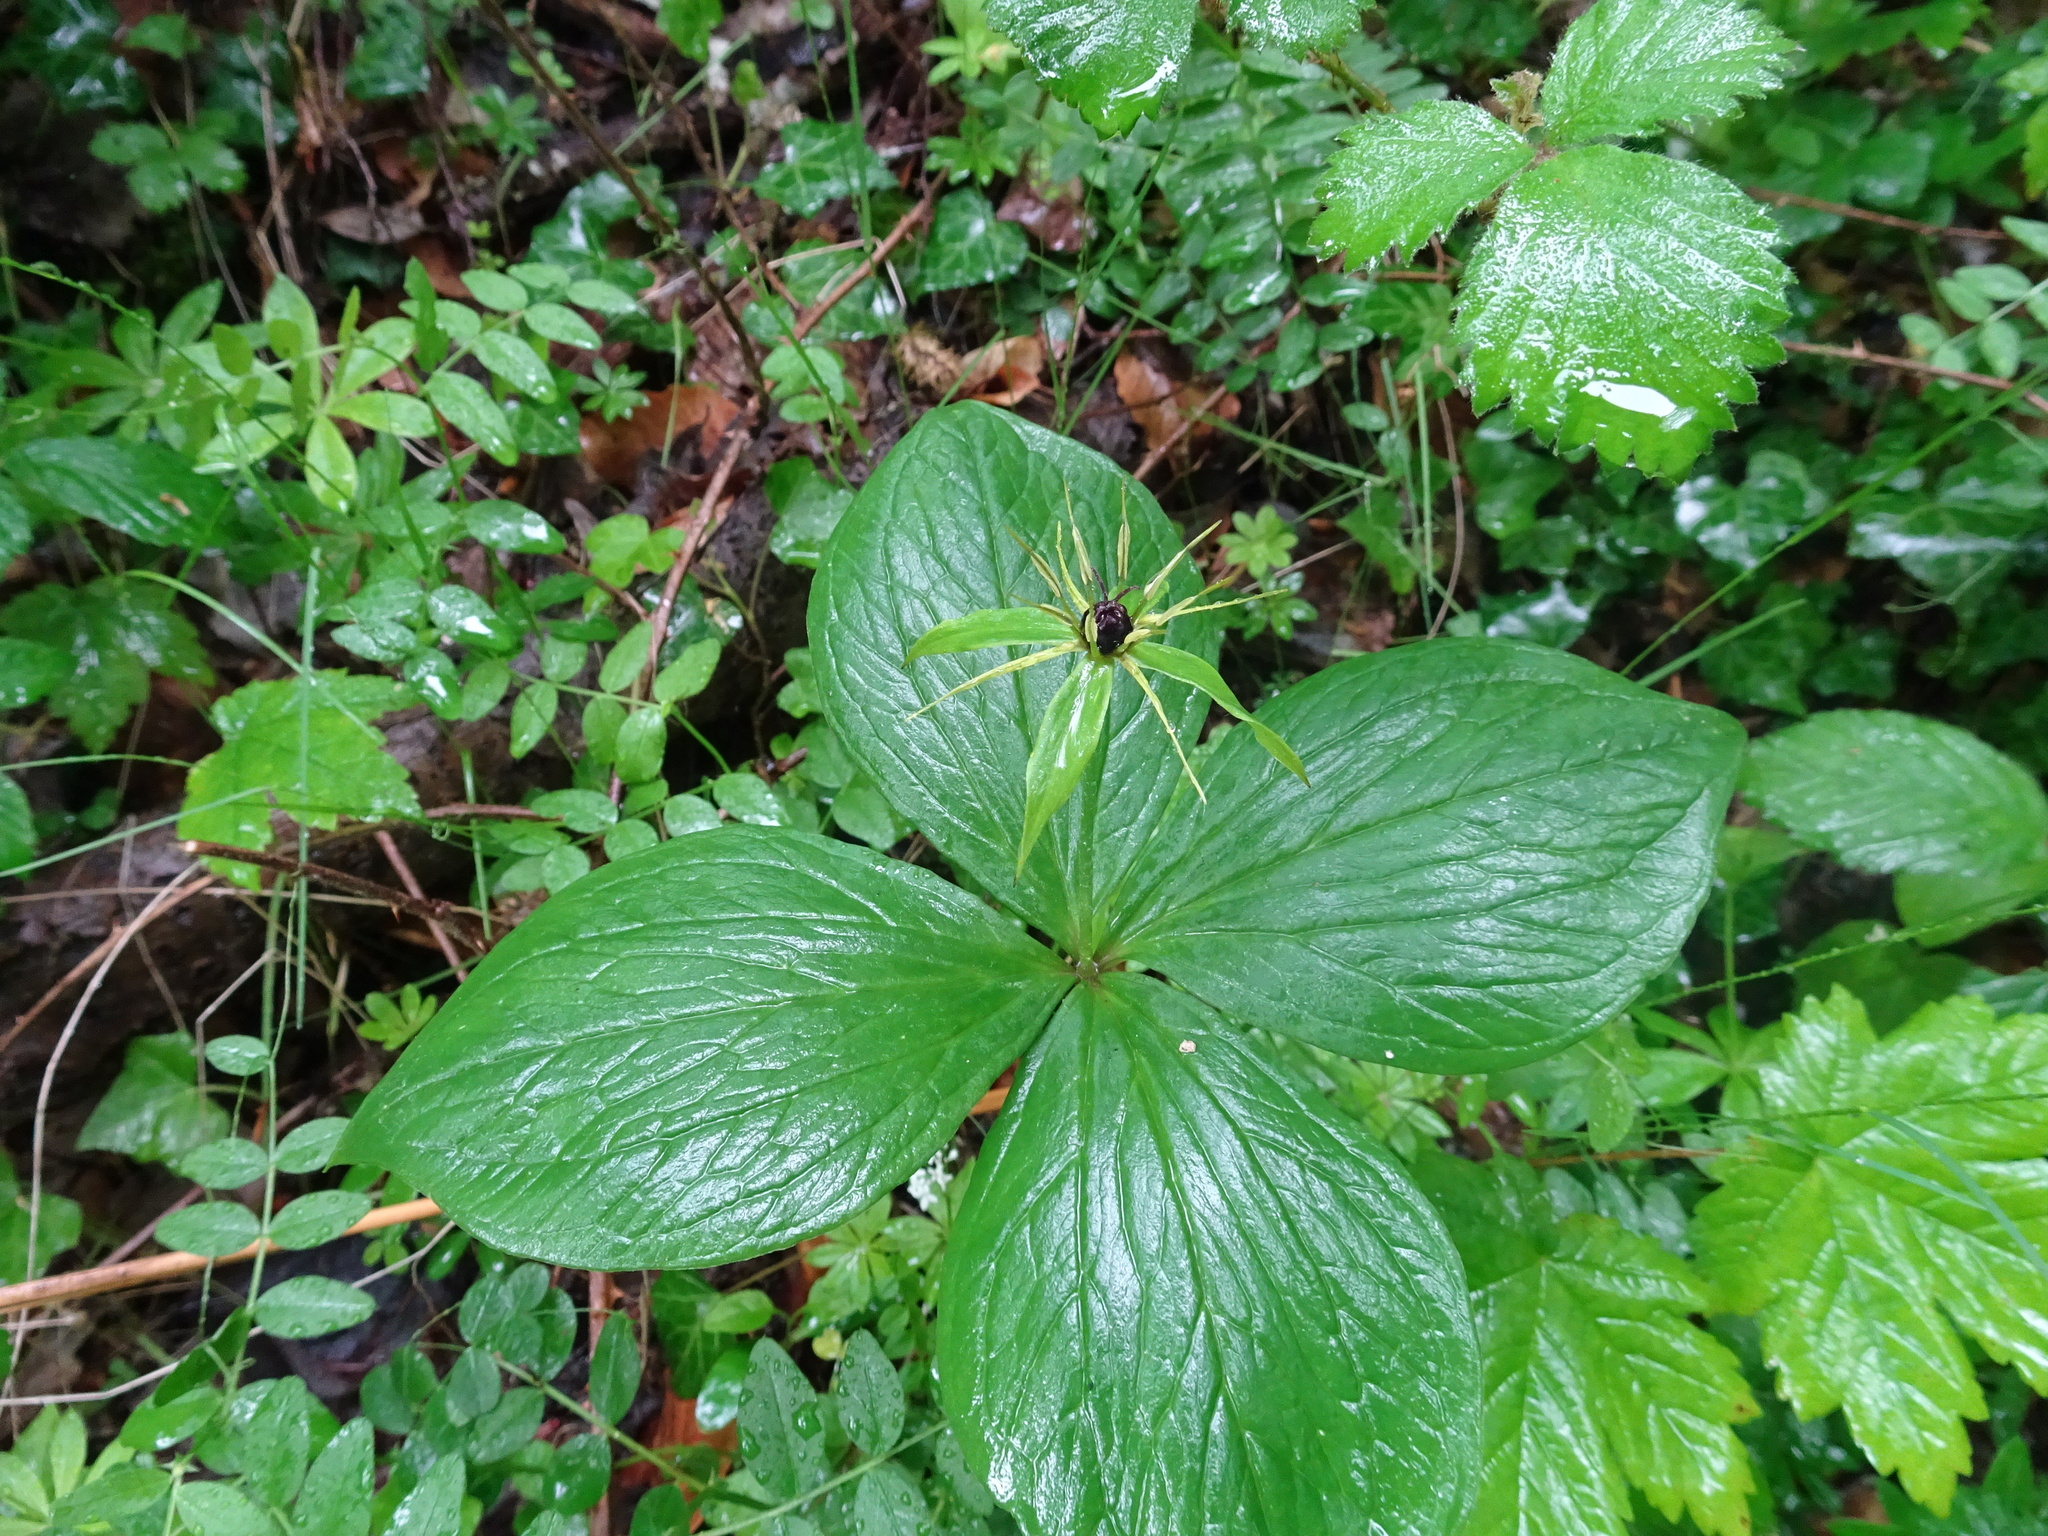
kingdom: Plantae
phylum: Tracheophyta
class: Liliopsida
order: Liliales
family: Melanthiaceae
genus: Paris
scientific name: Paris quadrifolia
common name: Herb-paris
